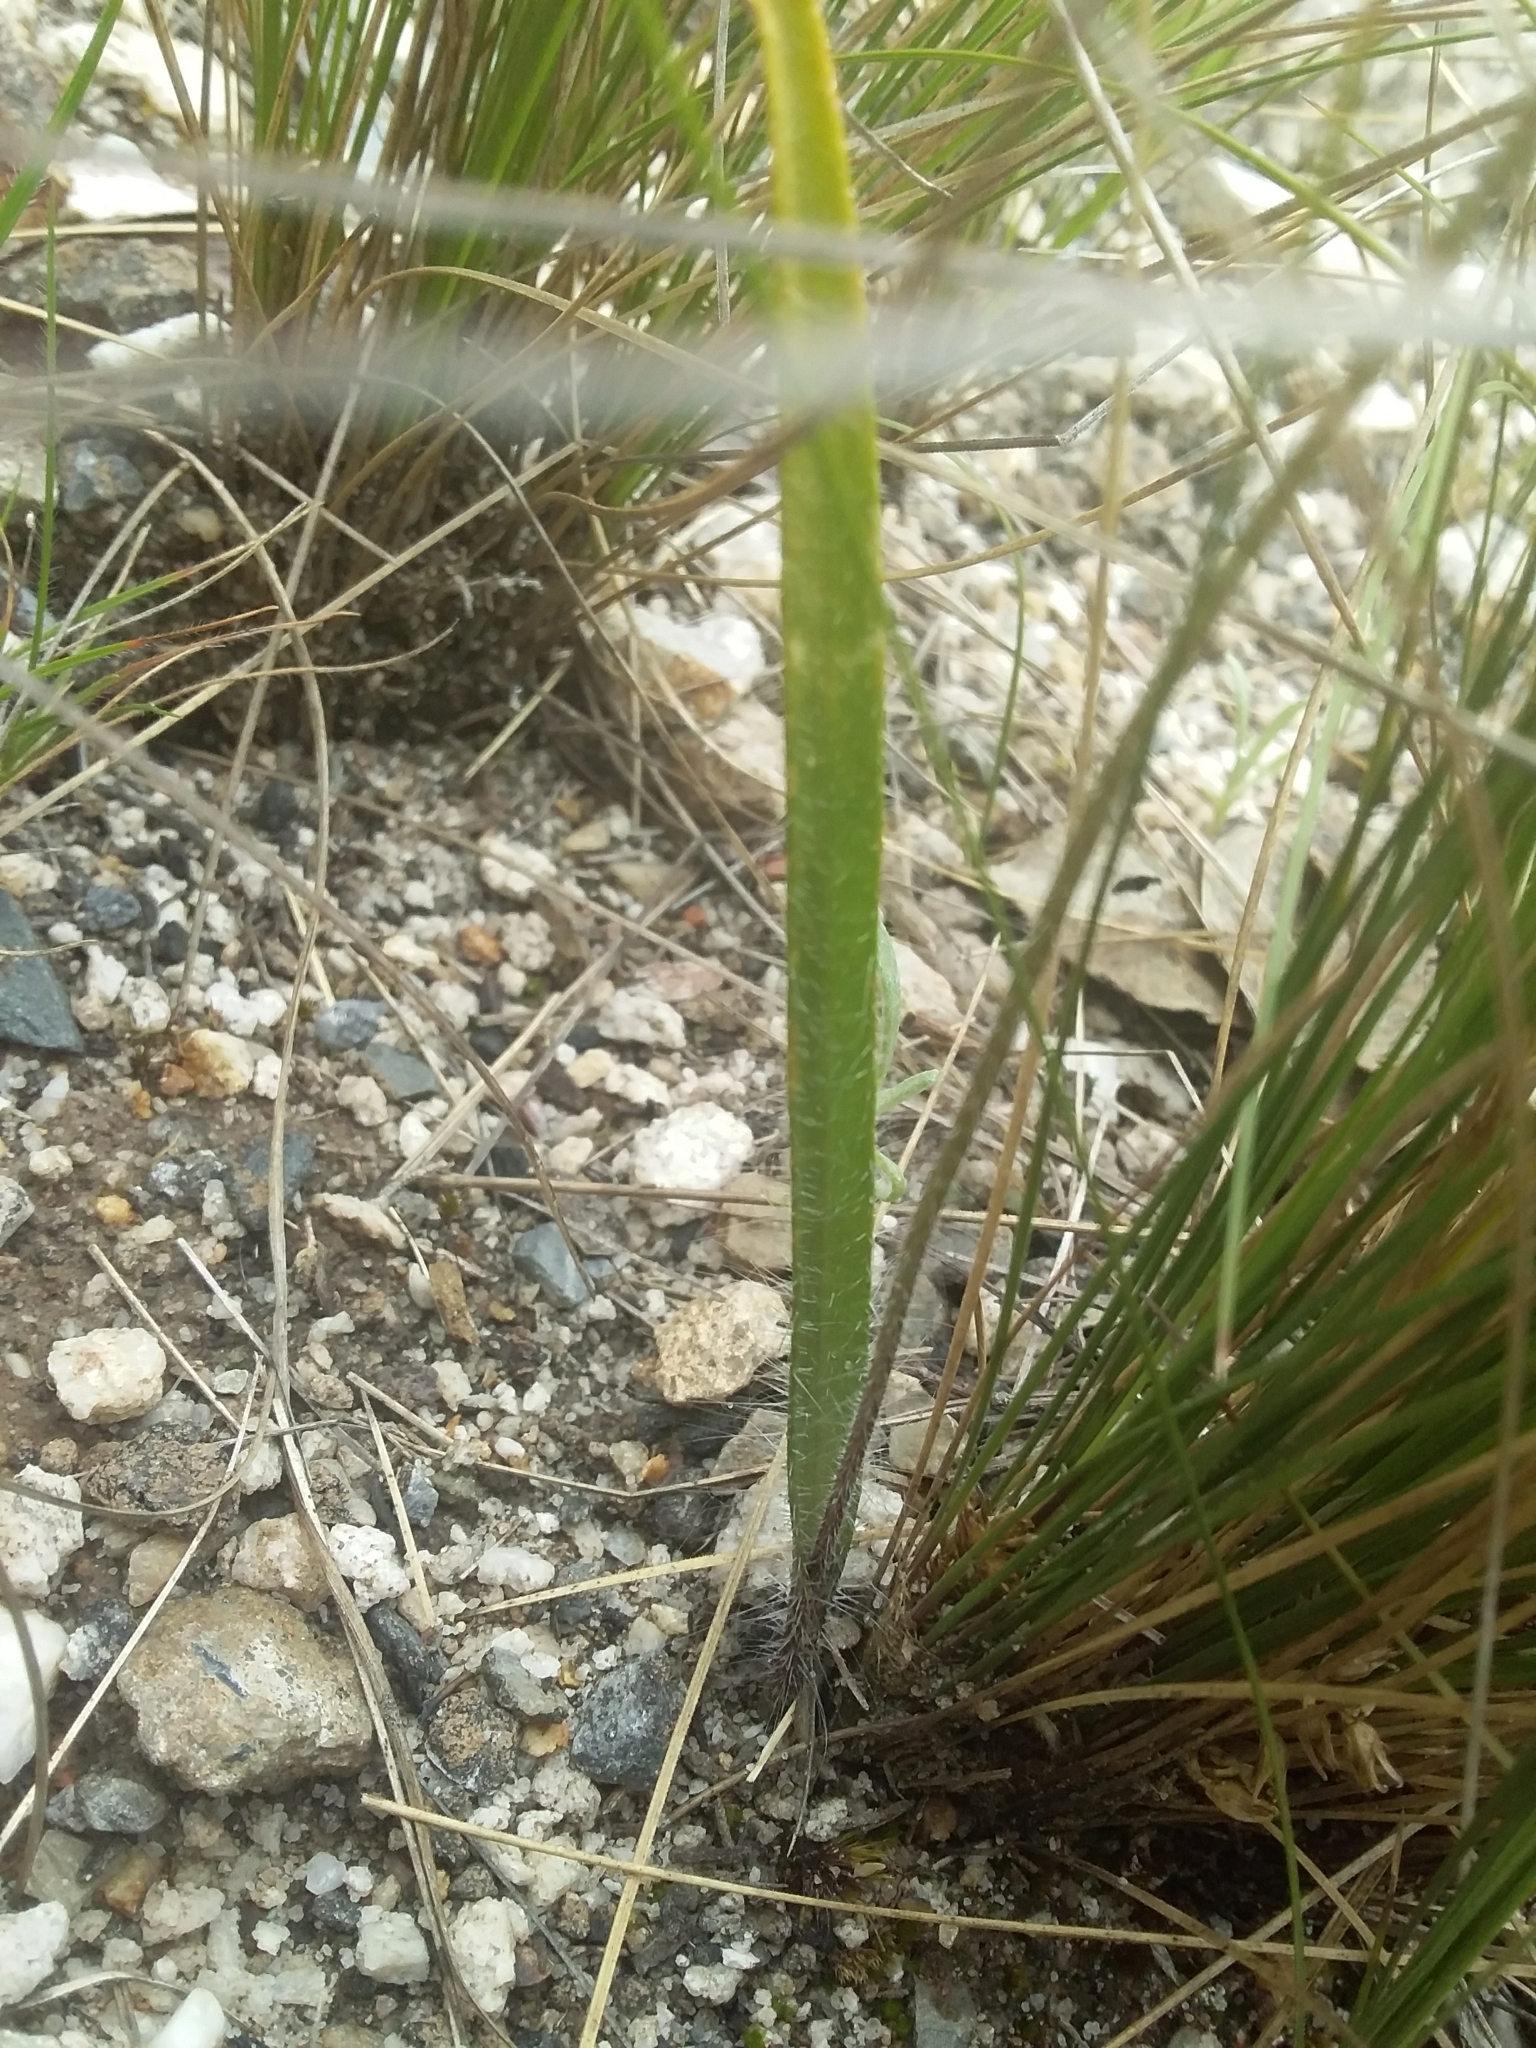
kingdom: Plantae
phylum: Tracheophyta
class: Liliopsida
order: Asparagales
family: Orchidaceae
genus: Caladenia
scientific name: Caladenia leptochila
